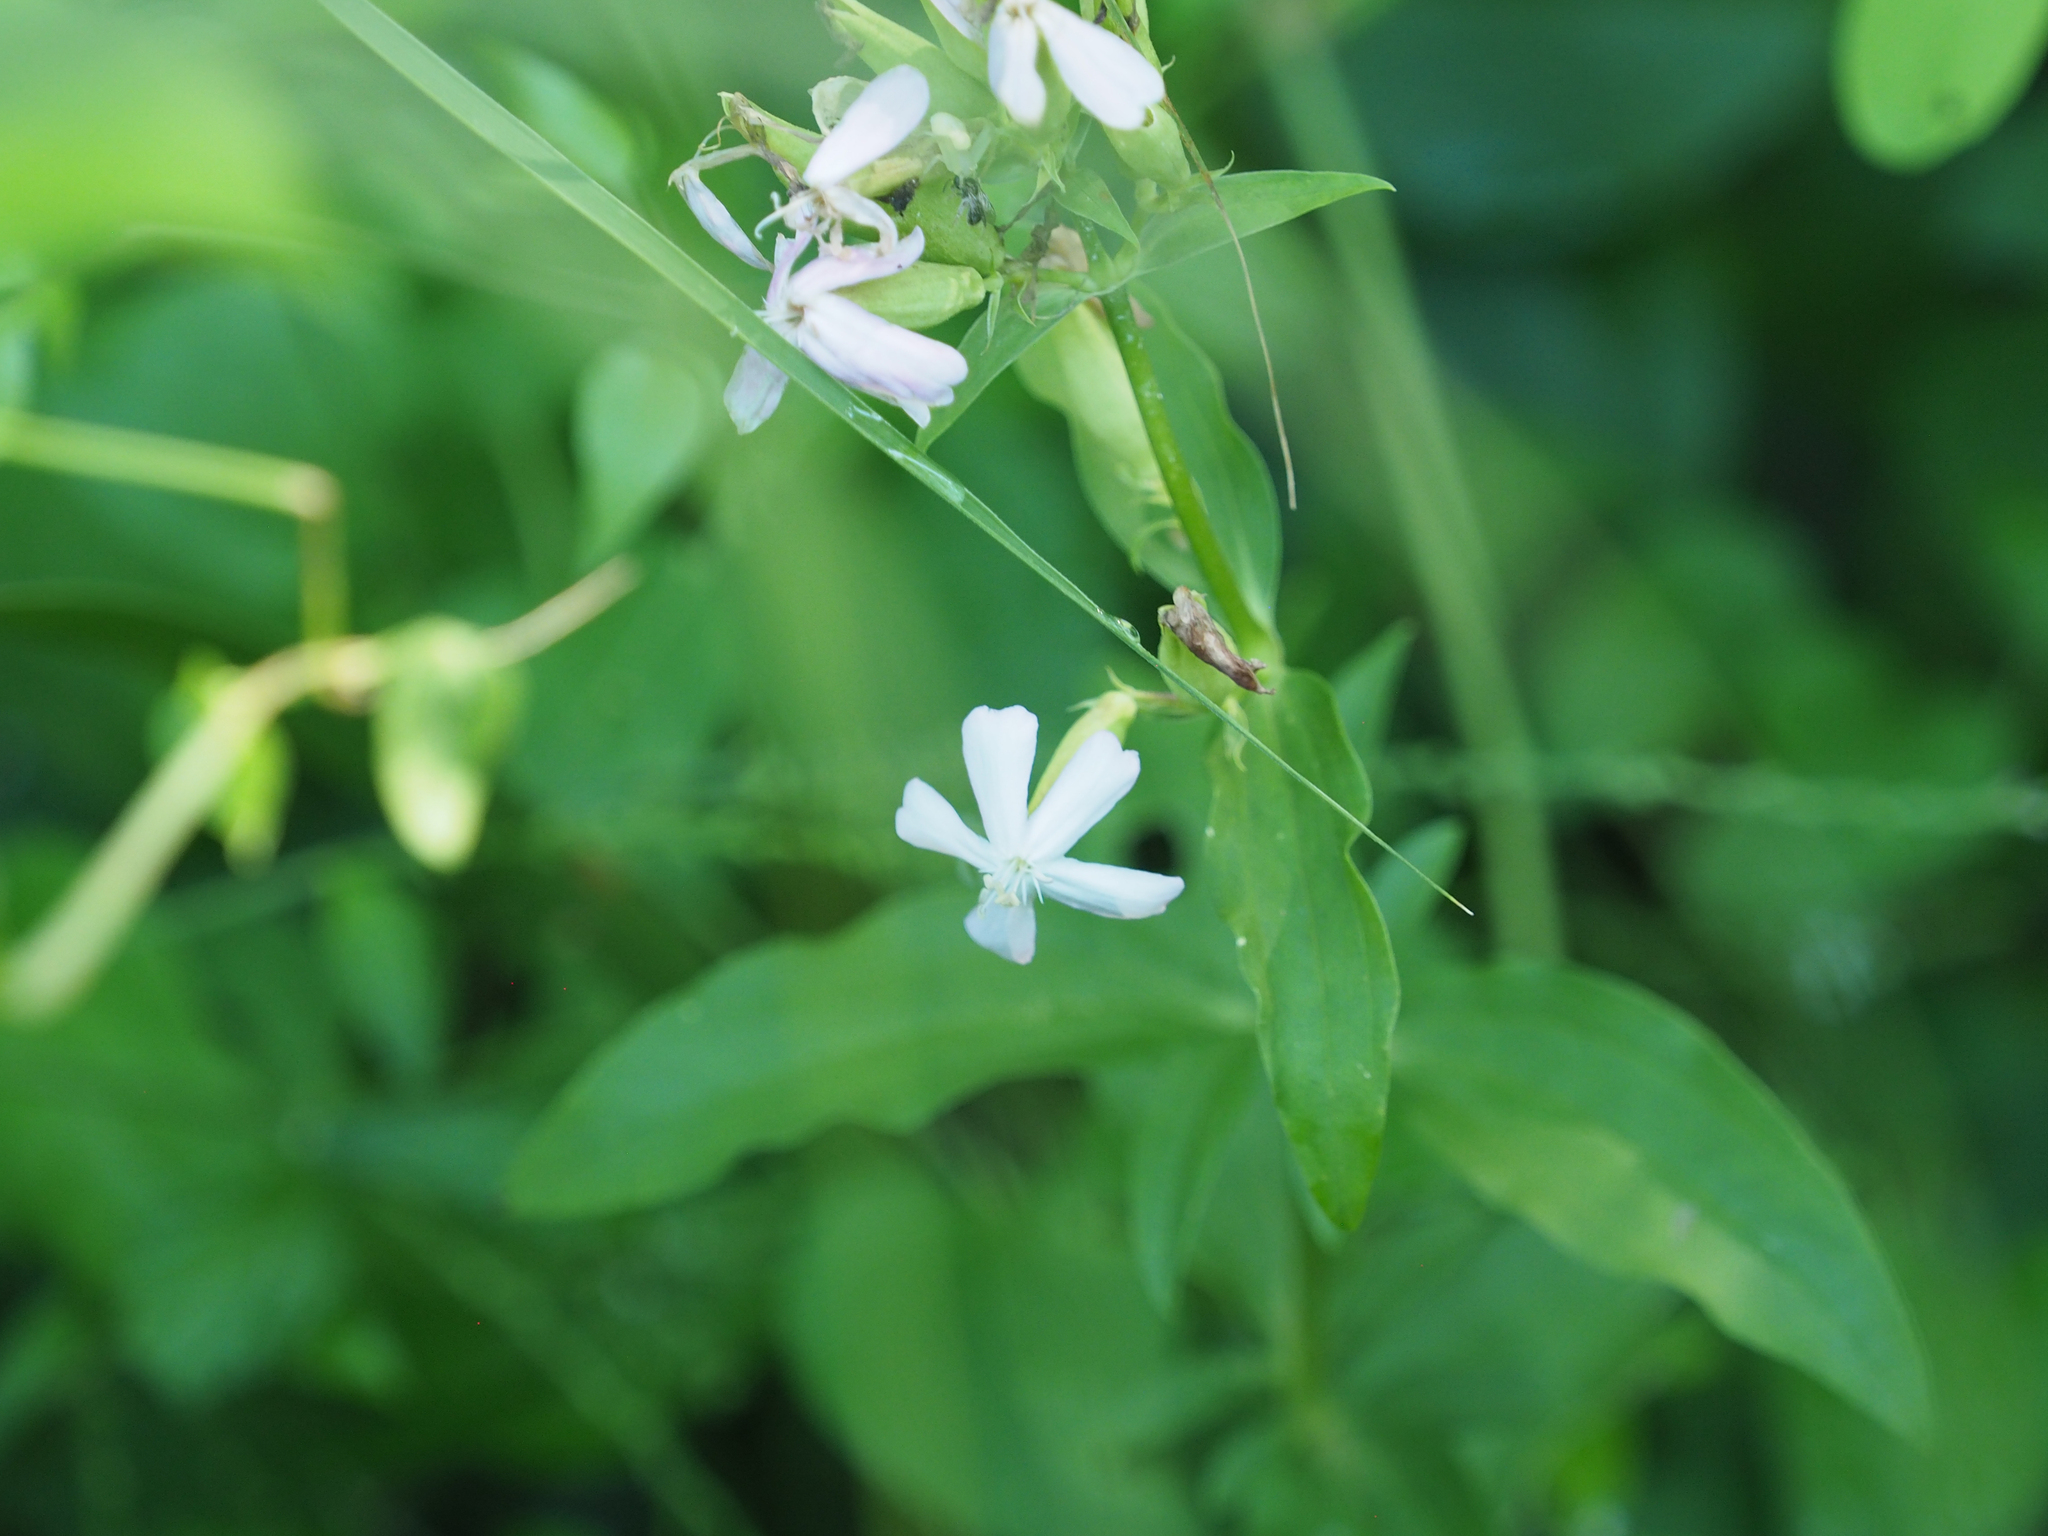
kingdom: Plantae
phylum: Tracheophyta
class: Magnoliopsida
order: Caryophyllales
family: Caryophyllaceae
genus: Saponaria
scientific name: Saponaria officinalis
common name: Soapwort
